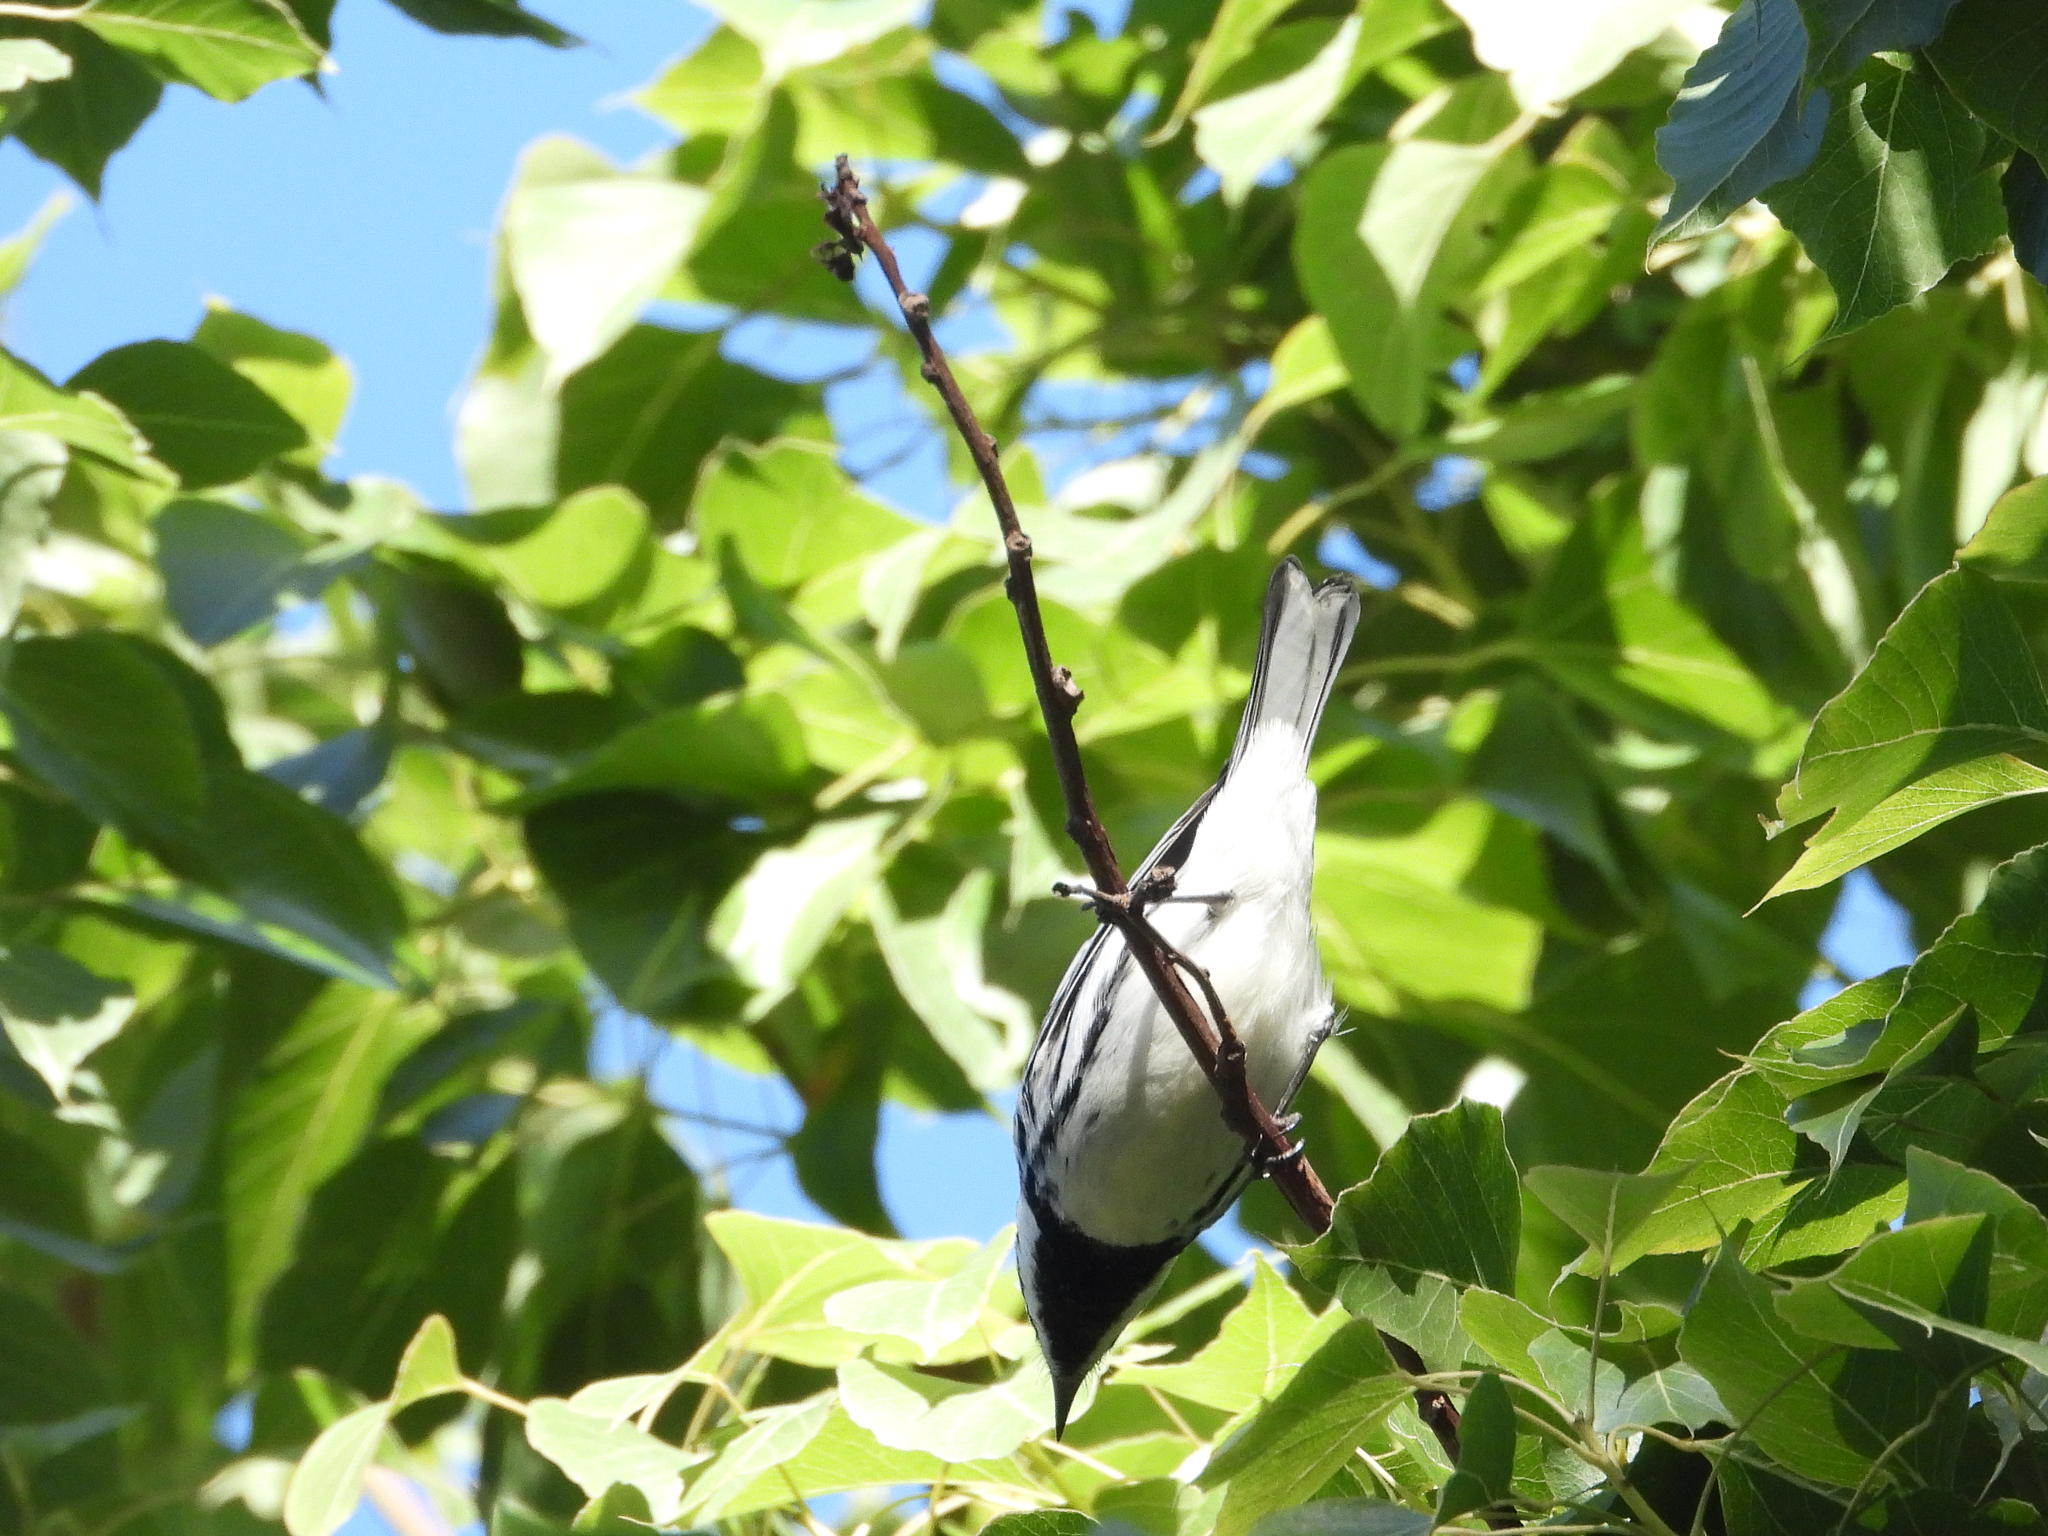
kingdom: Animalia
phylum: Chordata
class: Aves
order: Passeriformes
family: Parulidae
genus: Setophaga
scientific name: Setophaga nigrescens
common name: Black-throated gray warbler
